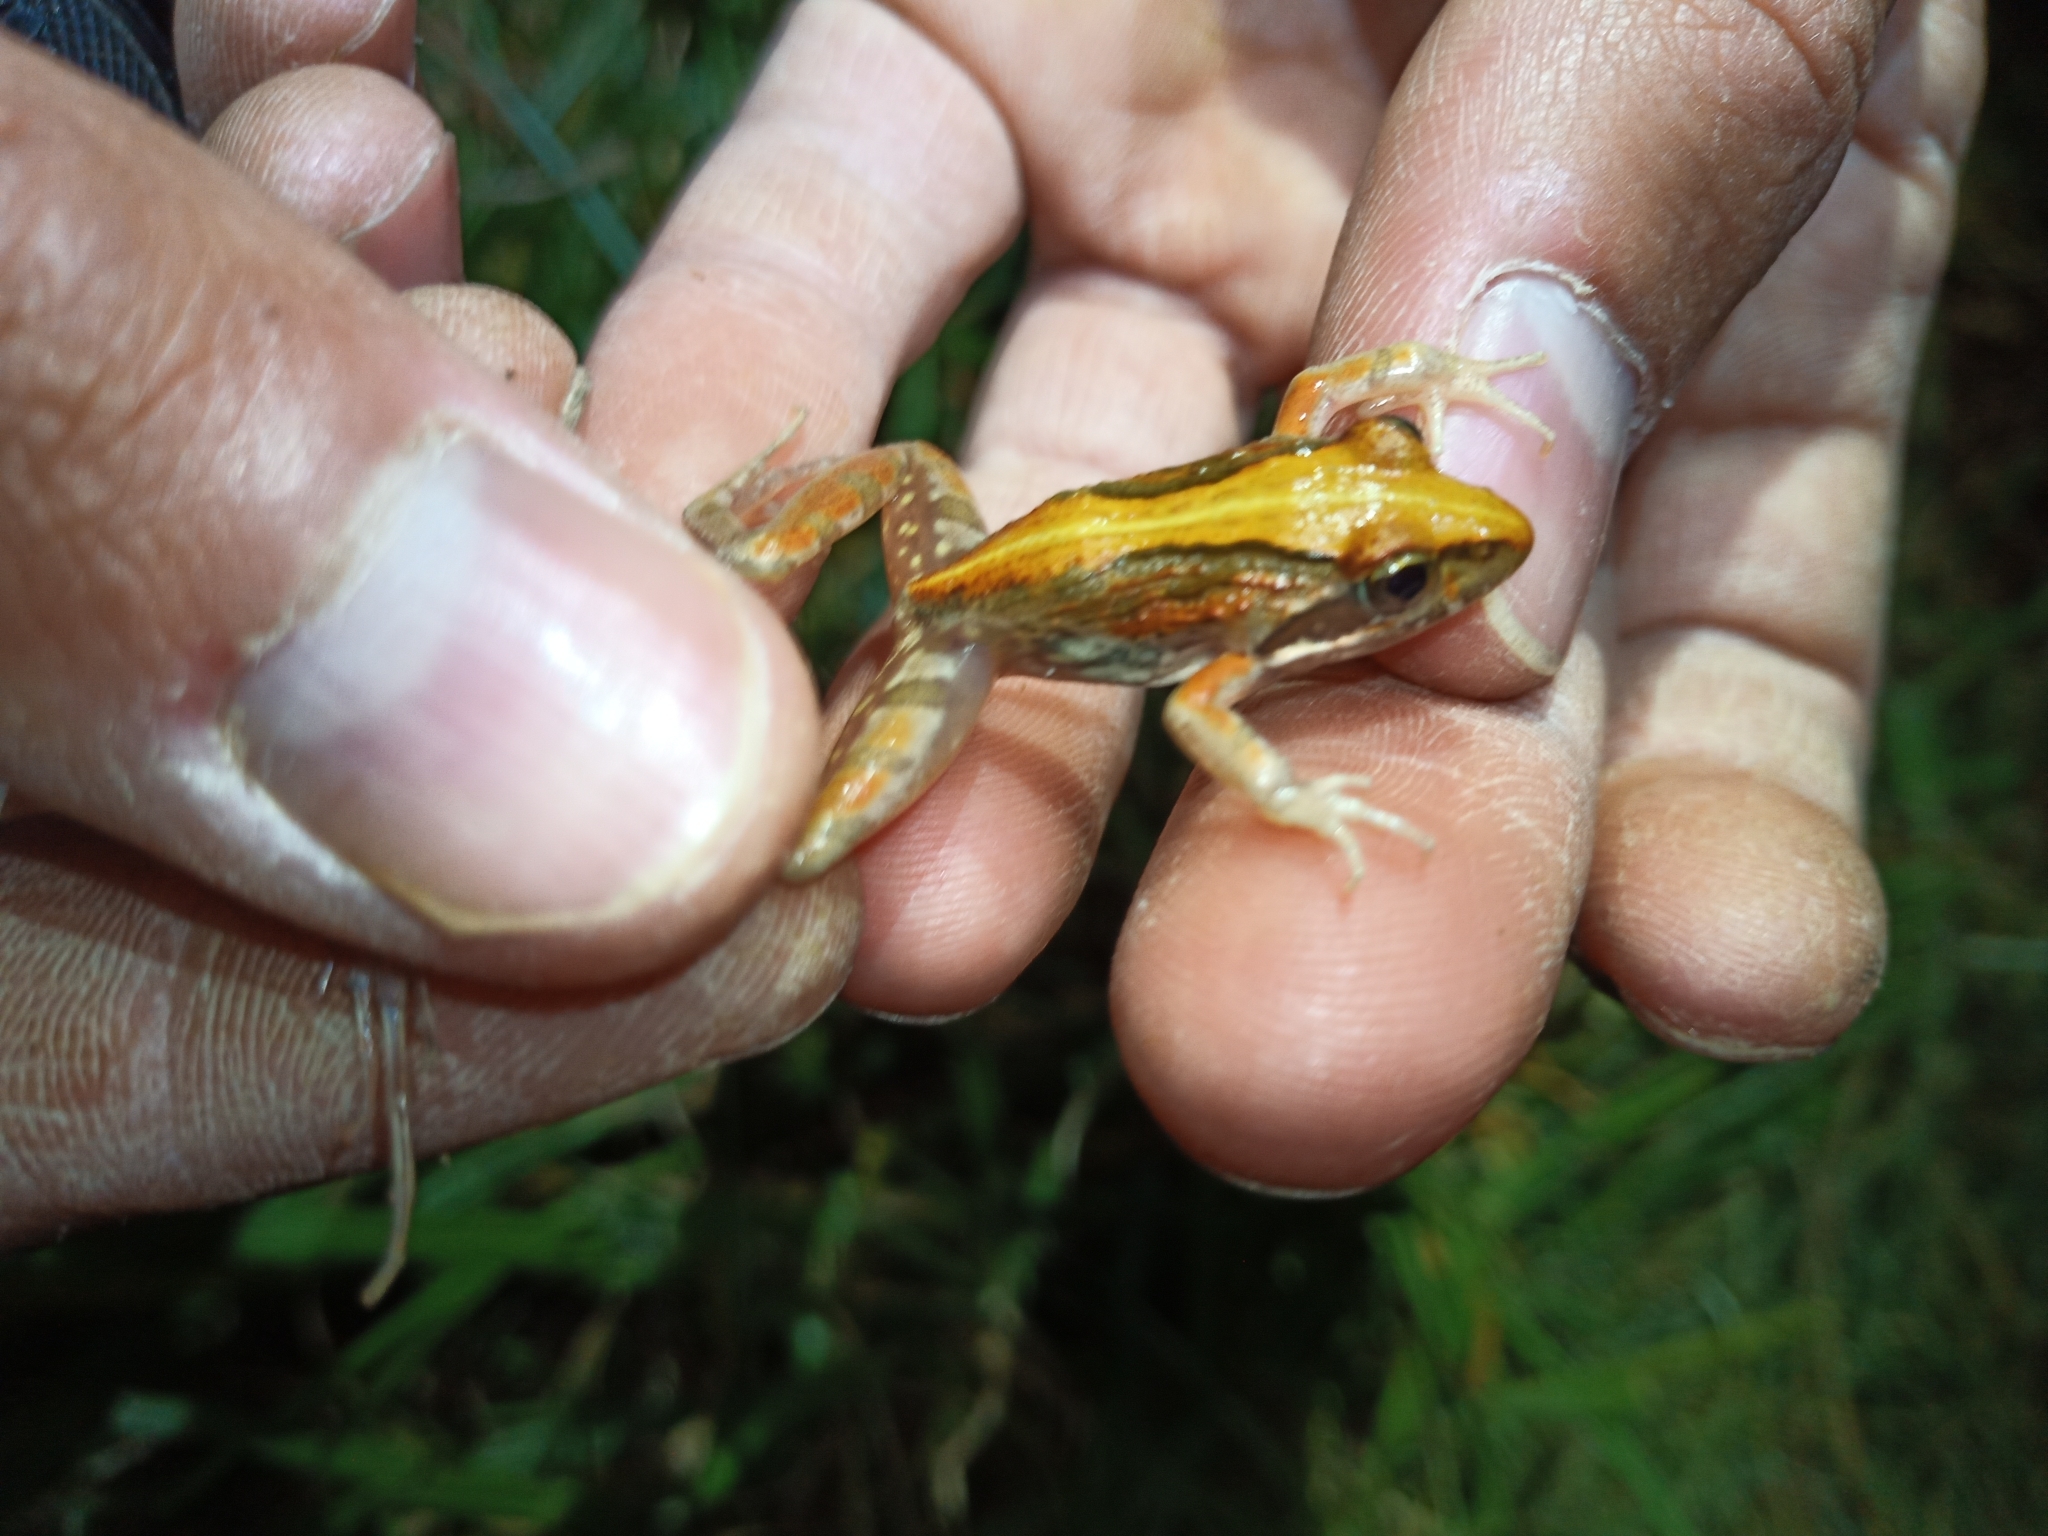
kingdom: Animalia
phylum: Chordata
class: Amphibia
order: Anura
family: Pyxicephalidae
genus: Strongylopus
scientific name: Strongylopus grayii
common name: Gray's stream frog
